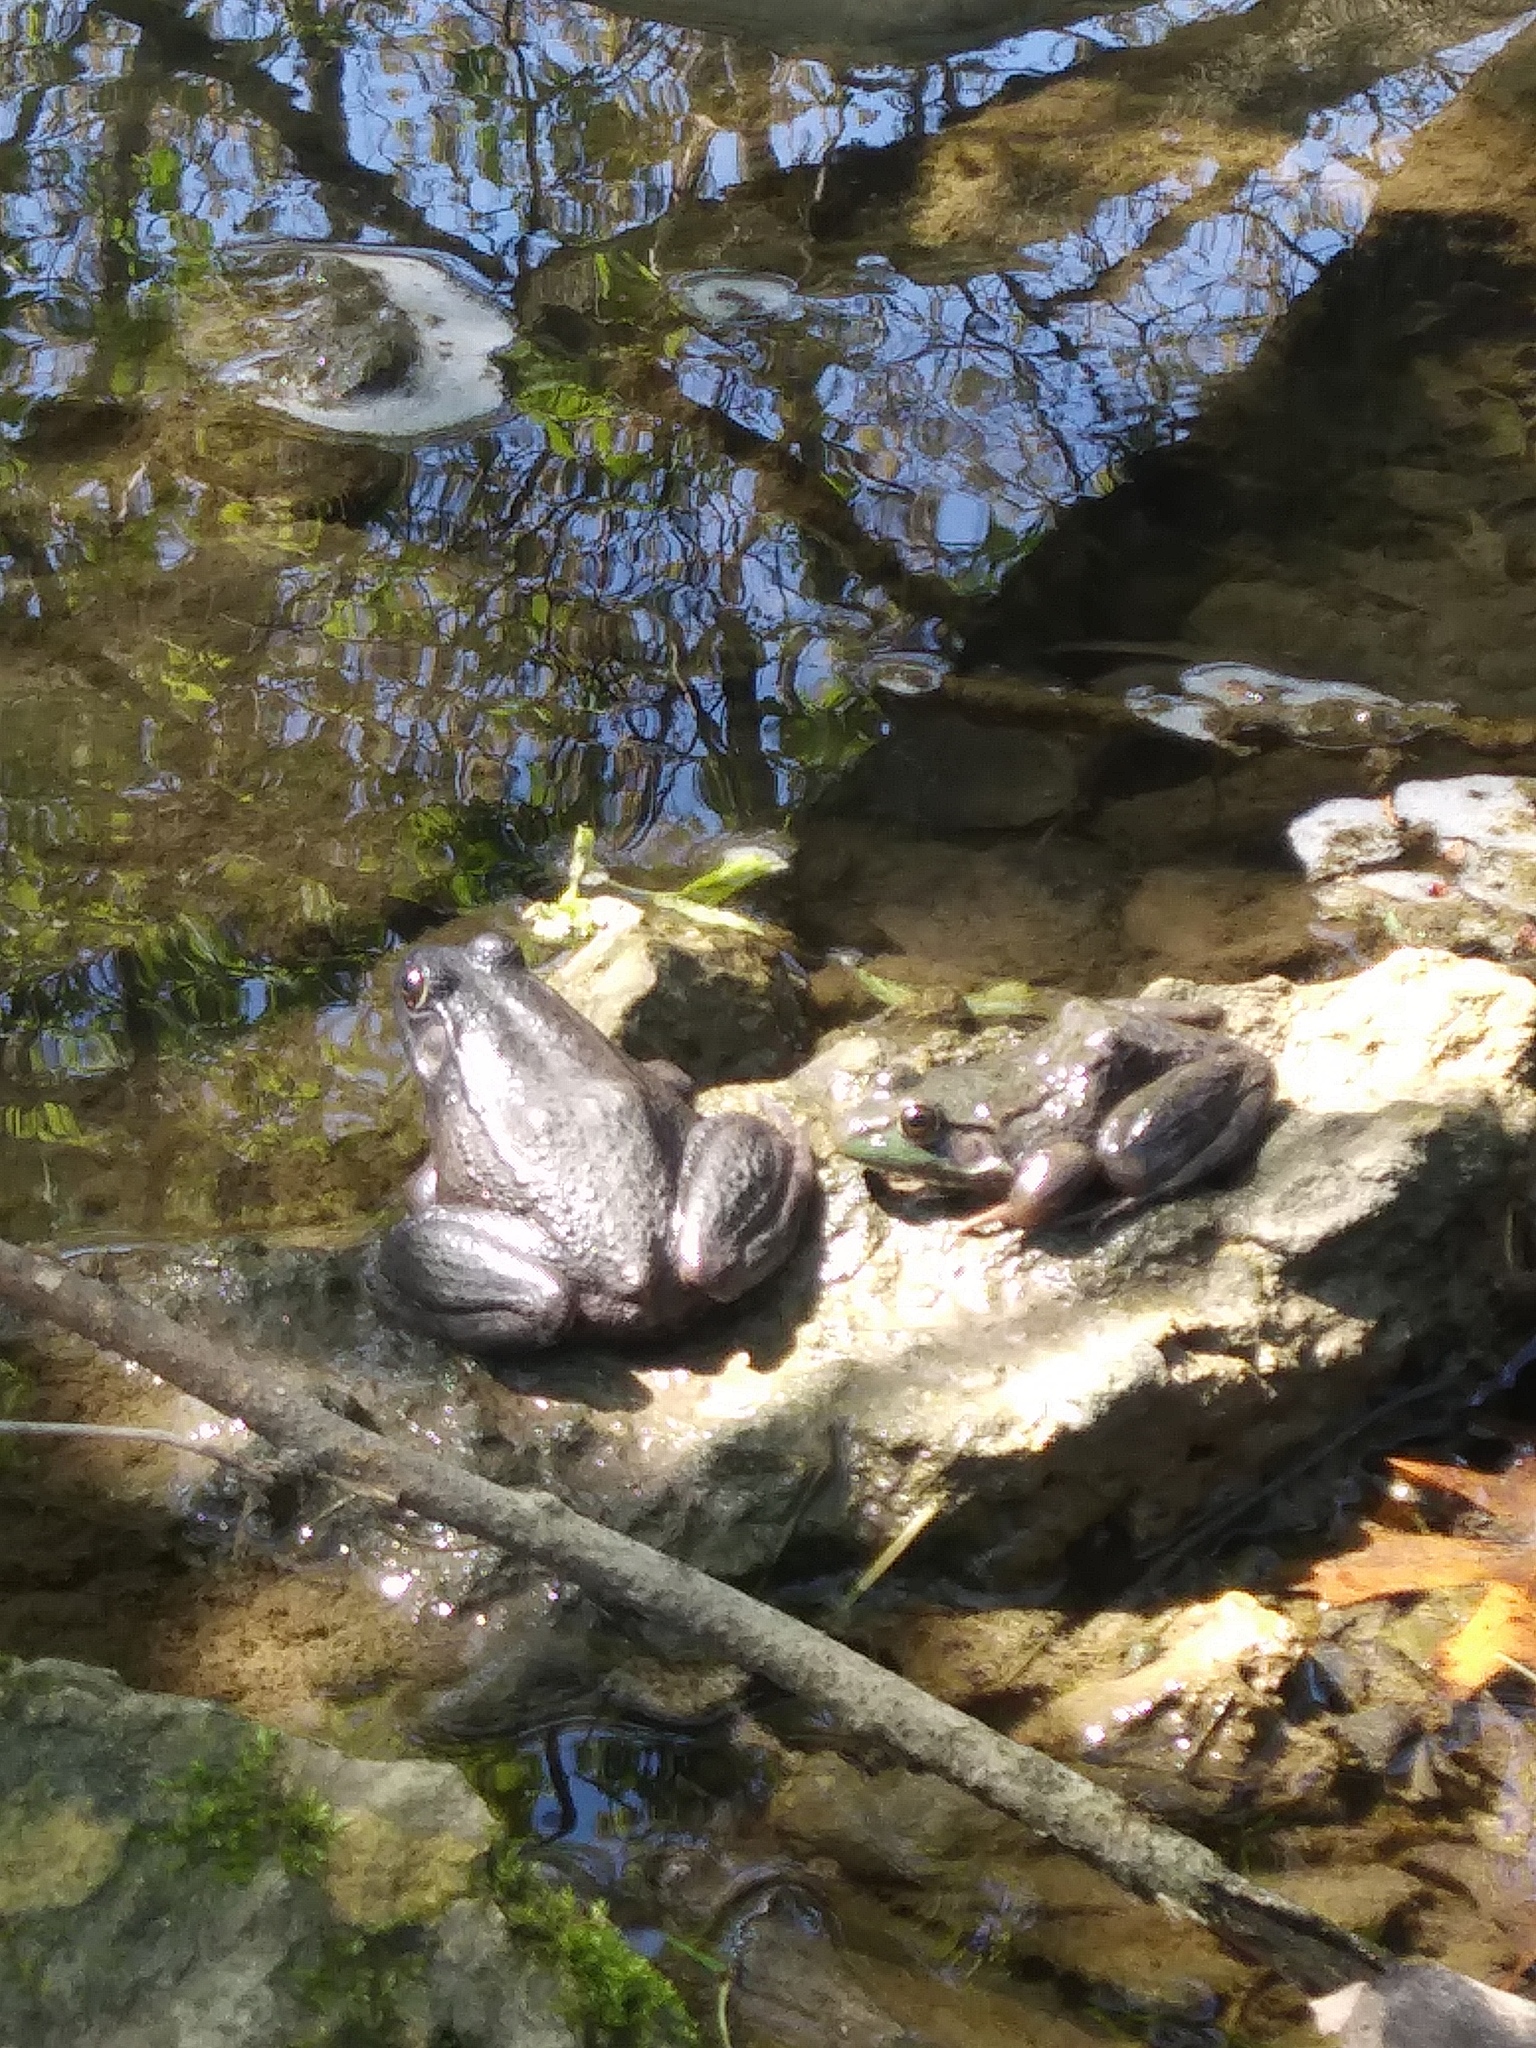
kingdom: Animalia
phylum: Chordata
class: Amphibia
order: Anura
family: Ranidae
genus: Lithobates
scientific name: Lithobates clamitans
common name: Green frog
